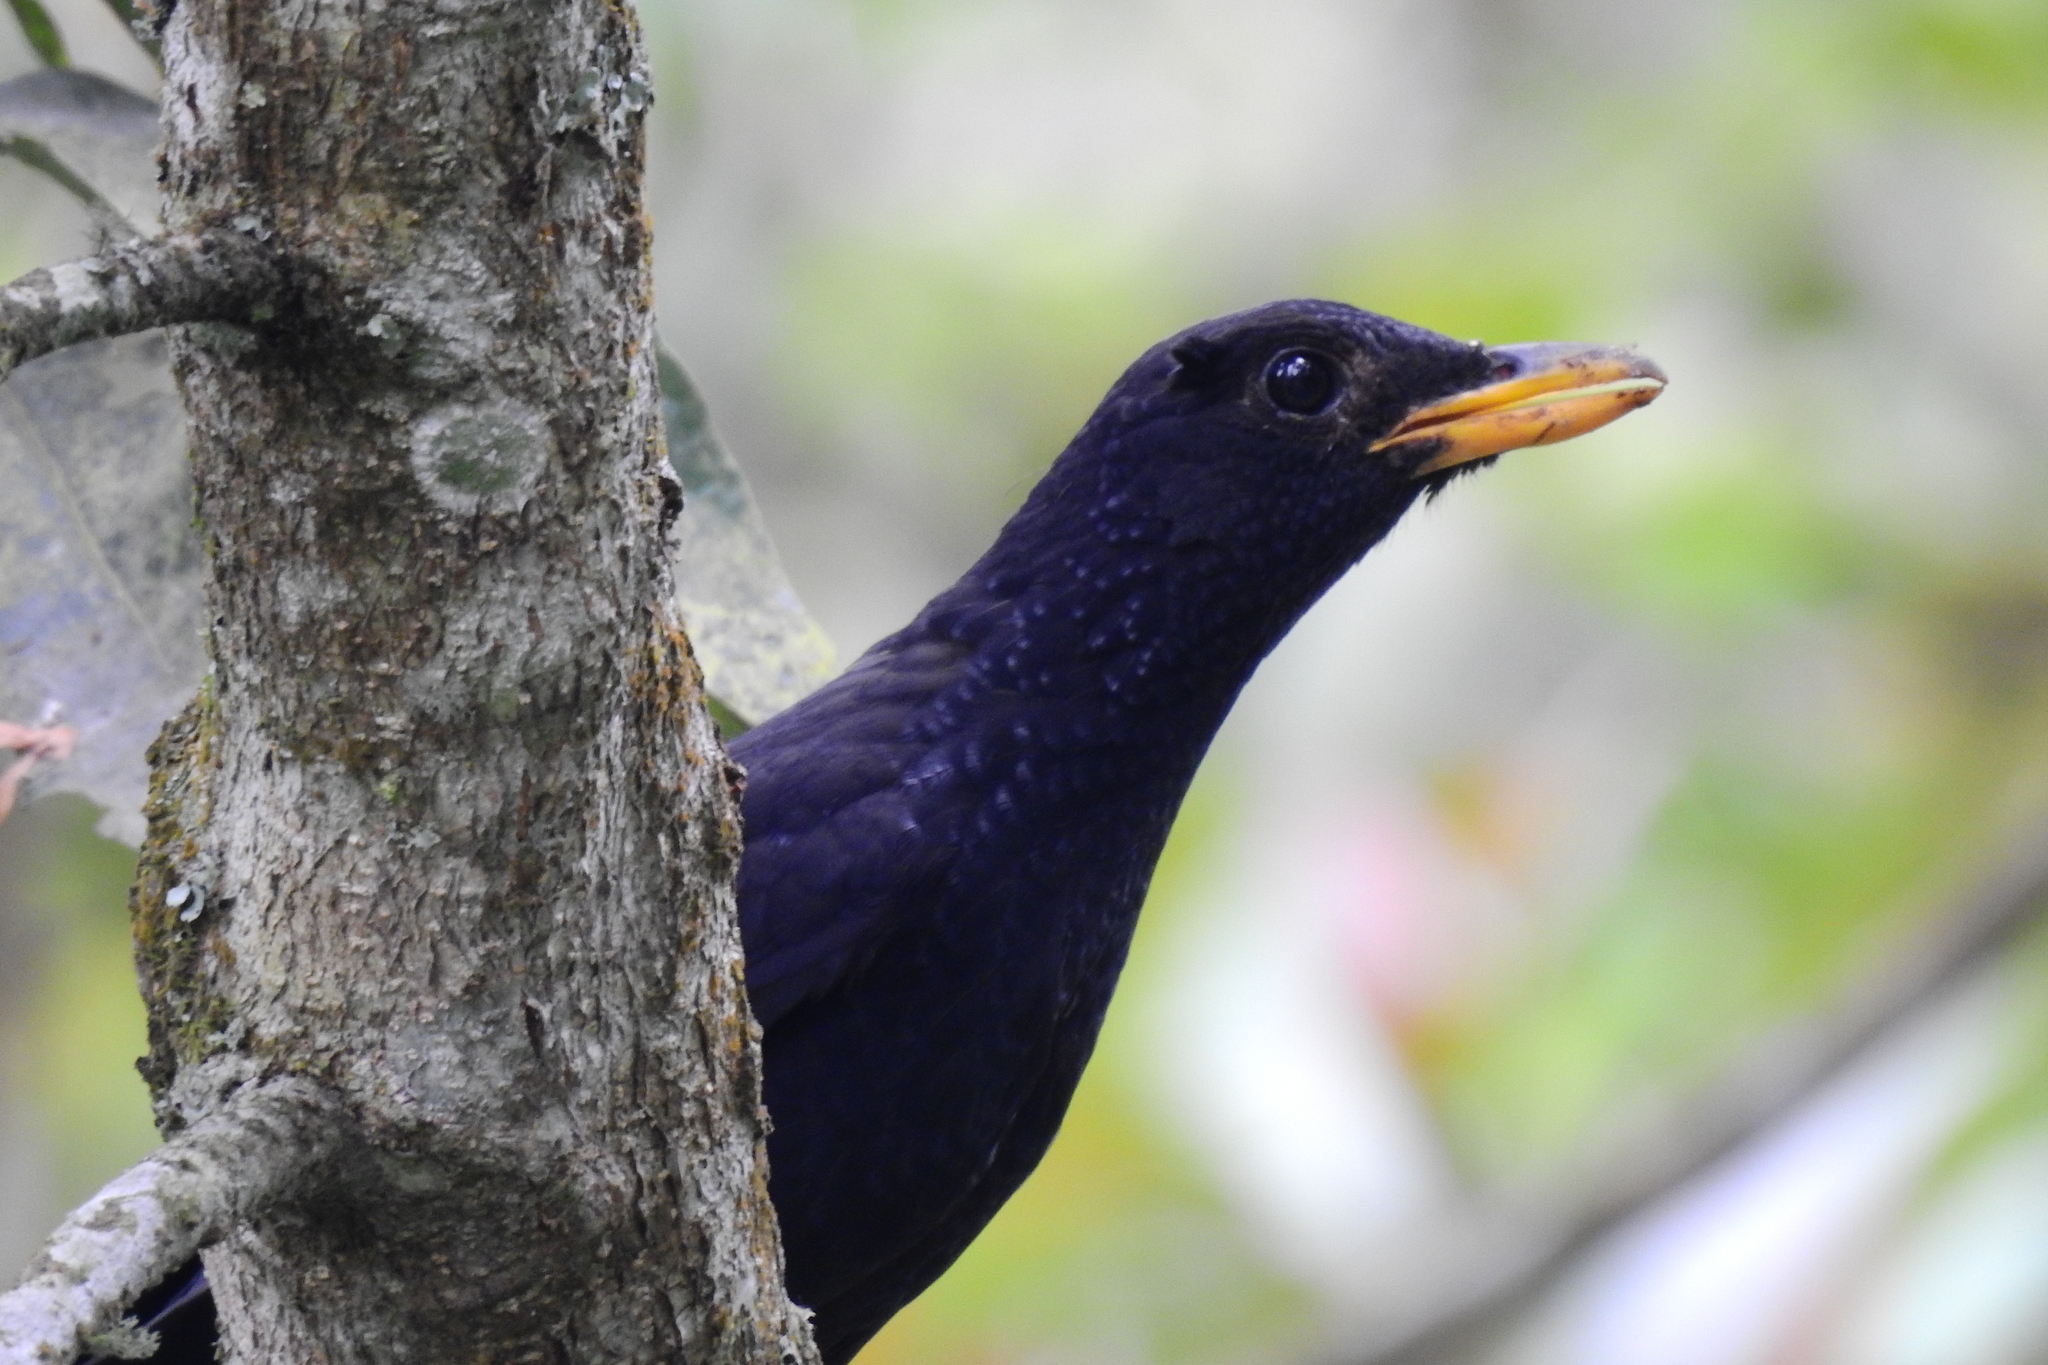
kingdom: Animalia
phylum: Chordata
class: Aves
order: Passeriformes
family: Muscicapidae
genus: Myophonus
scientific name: Myophonus caeruleus
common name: Blue whistling-thrush
